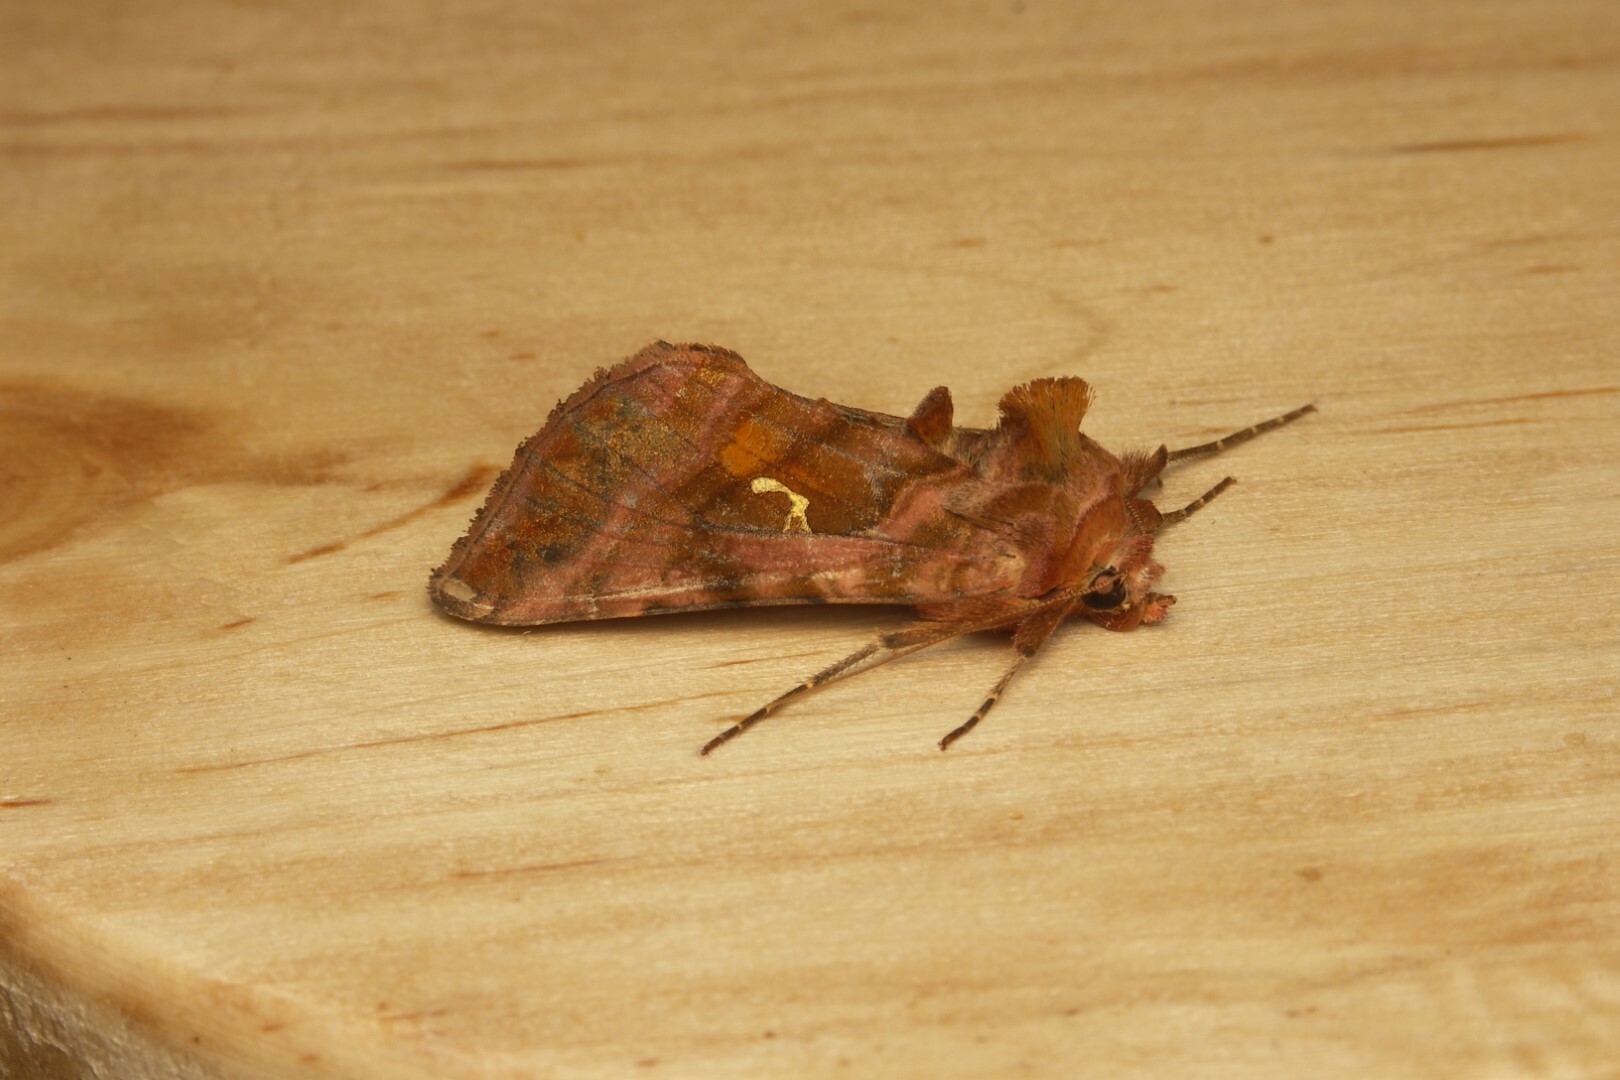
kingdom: Animalia
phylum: Arthropoda
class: Insecta
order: Lepidoptera
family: Noctuidae
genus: Autographa
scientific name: Autographa jota
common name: Plain golden y
